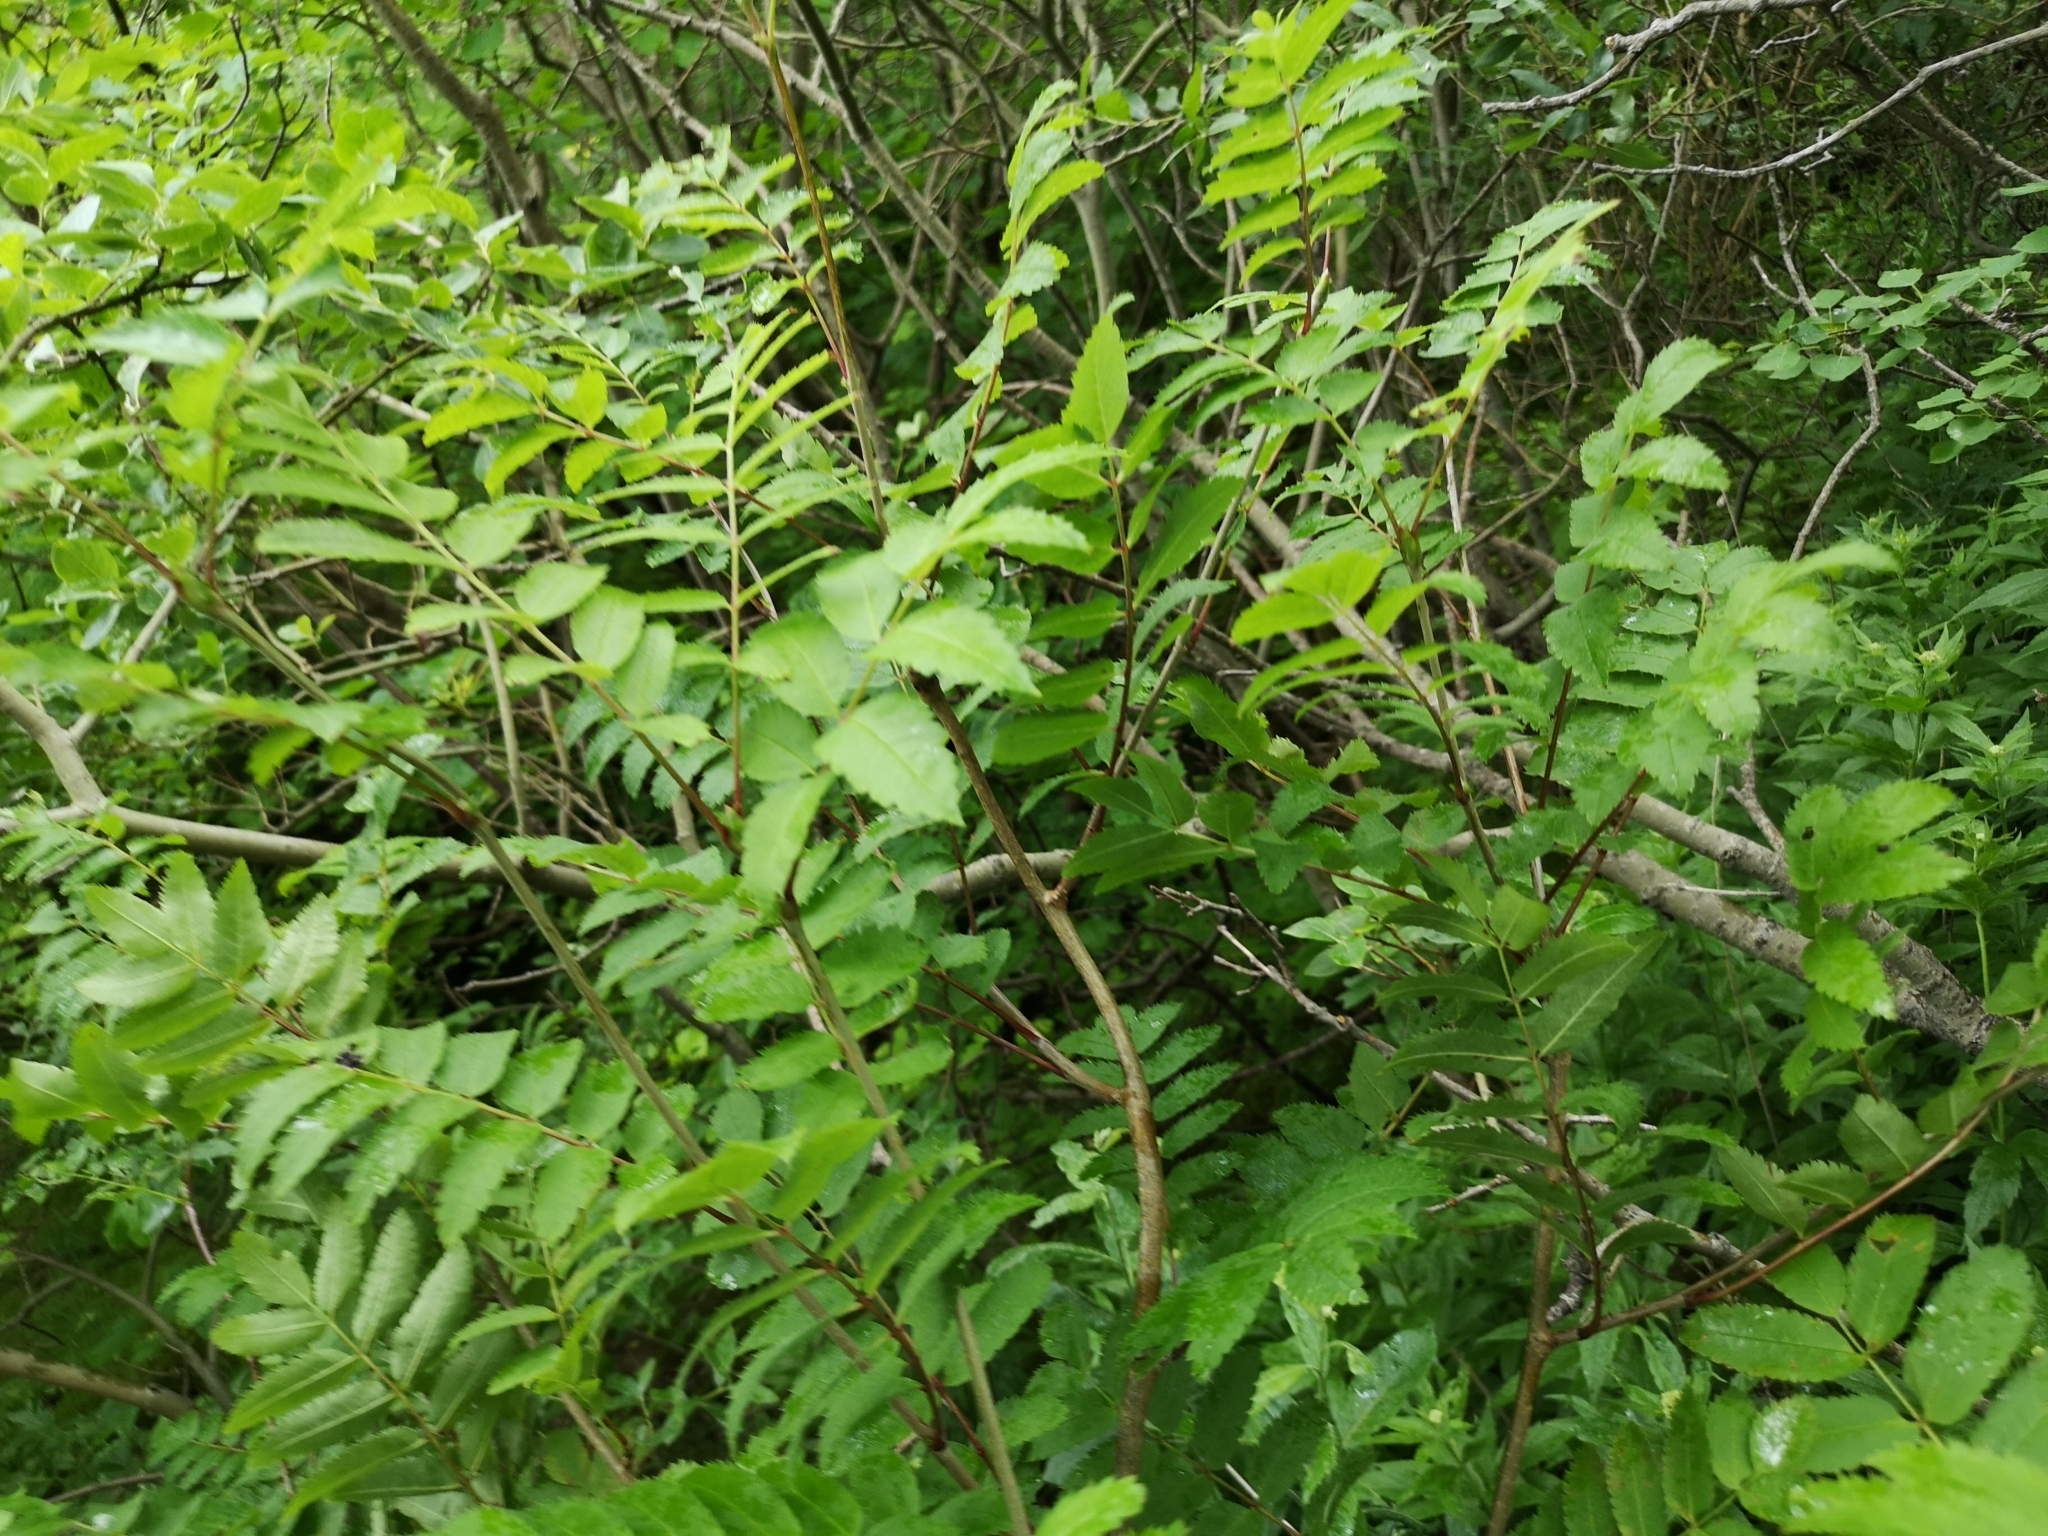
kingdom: Plantae
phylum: Tracheophyta
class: Magnoliopsida
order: Rosales
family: Rosaceae
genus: Sorbus
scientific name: Sorbus aucuparia
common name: Rowan
